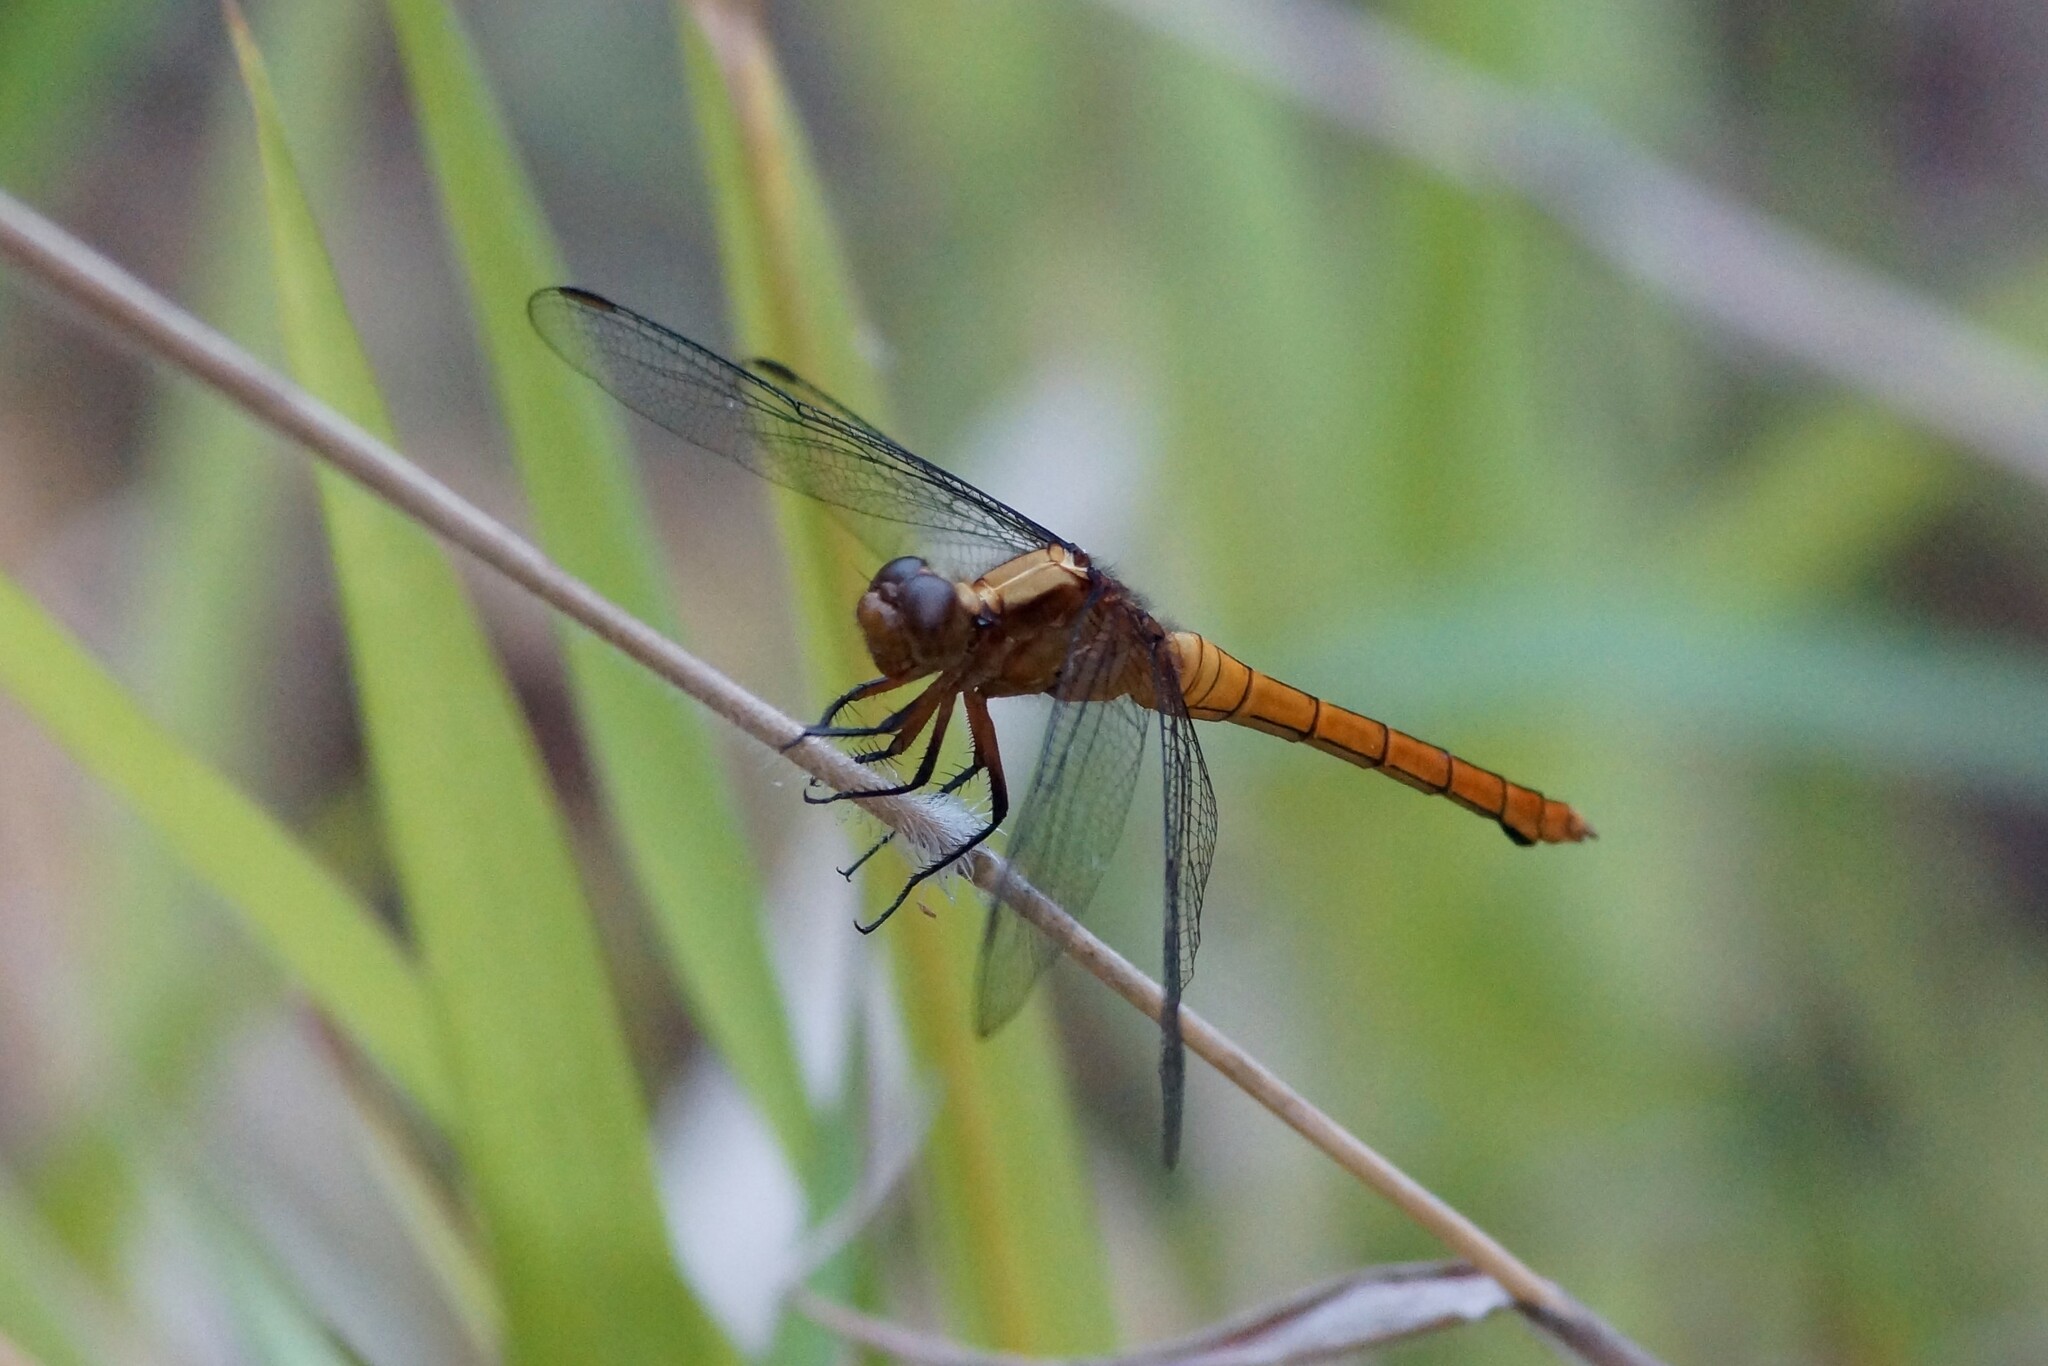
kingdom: Animalia
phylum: Arthropoda
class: Insecta
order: Odonata
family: Libellulidae
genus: Orthetrum
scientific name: Orthetrum villosovittatum
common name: Firery skimmer
